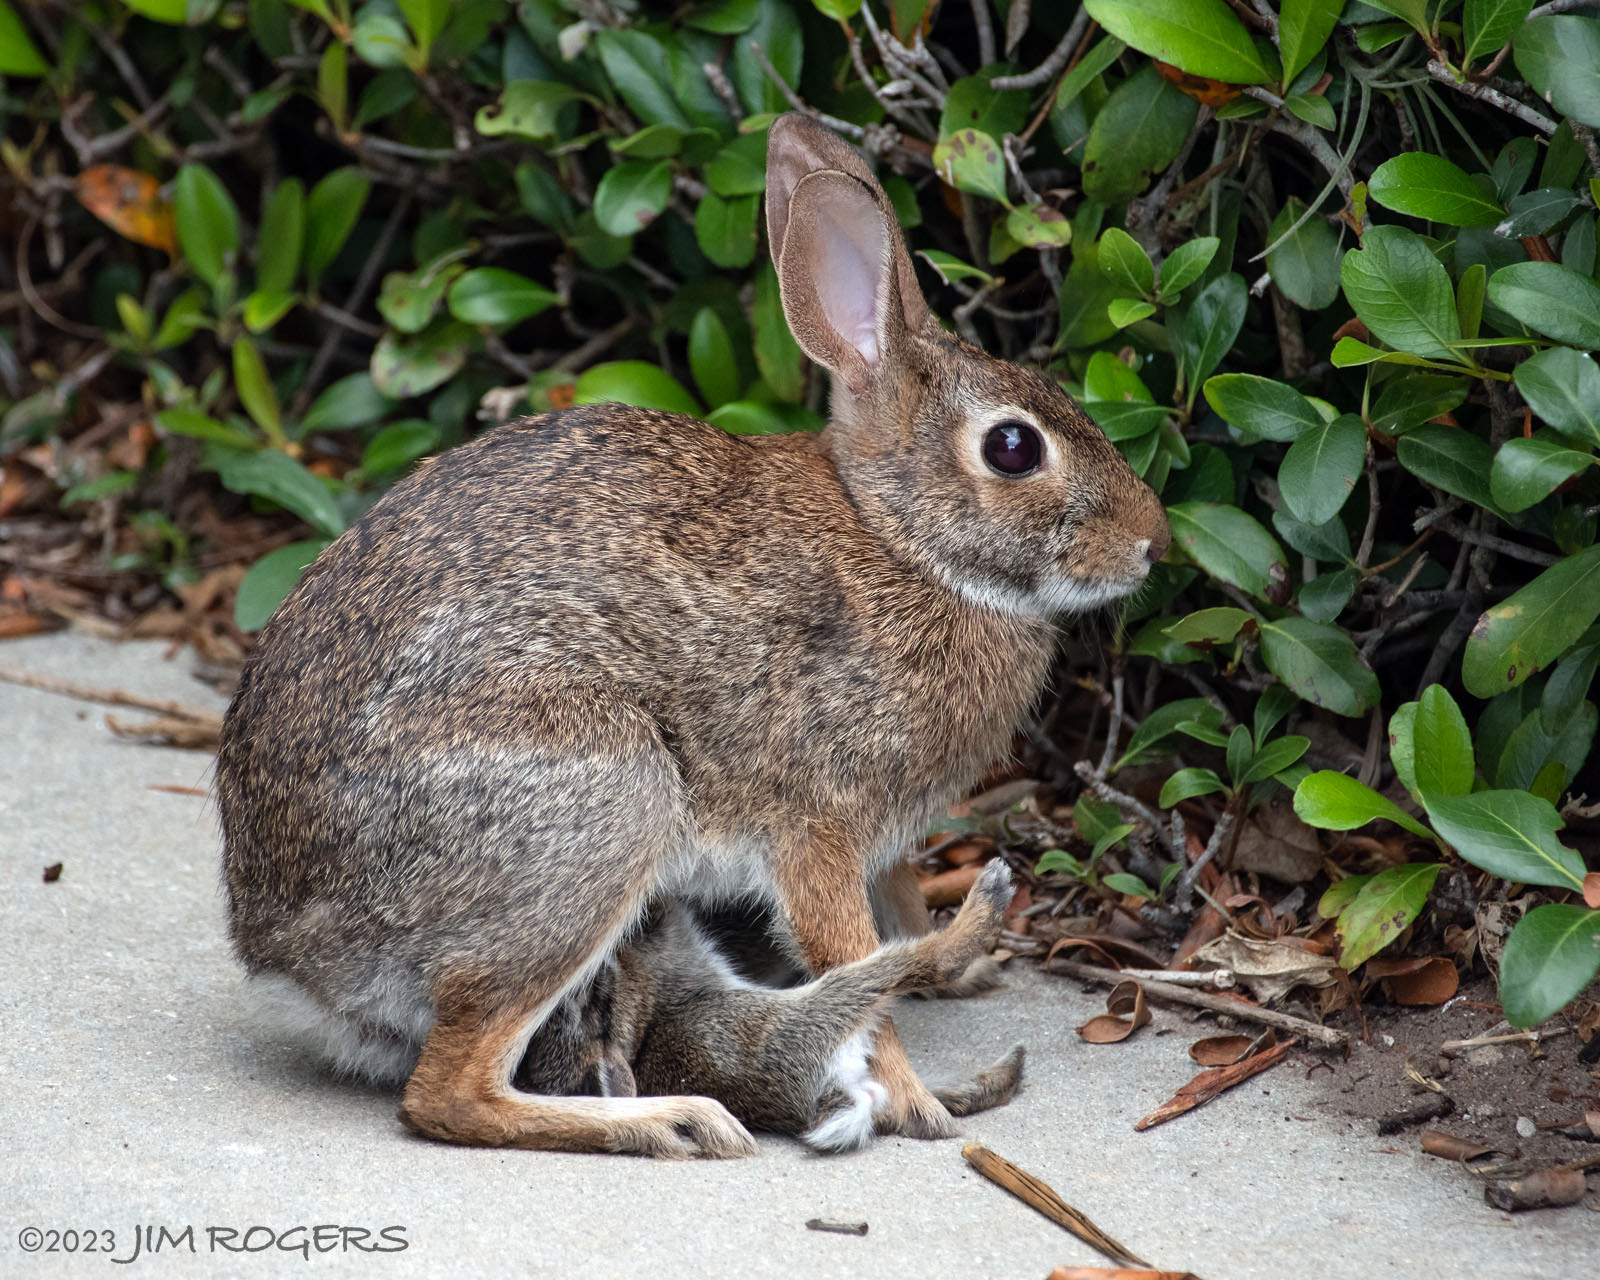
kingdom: Animalia
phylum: Chordata
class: Mammalia
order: Lagomorpha
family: Leporidae
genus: Sylvilagus
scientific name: Sylvilagus floridanus
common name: Eastern cottontail
